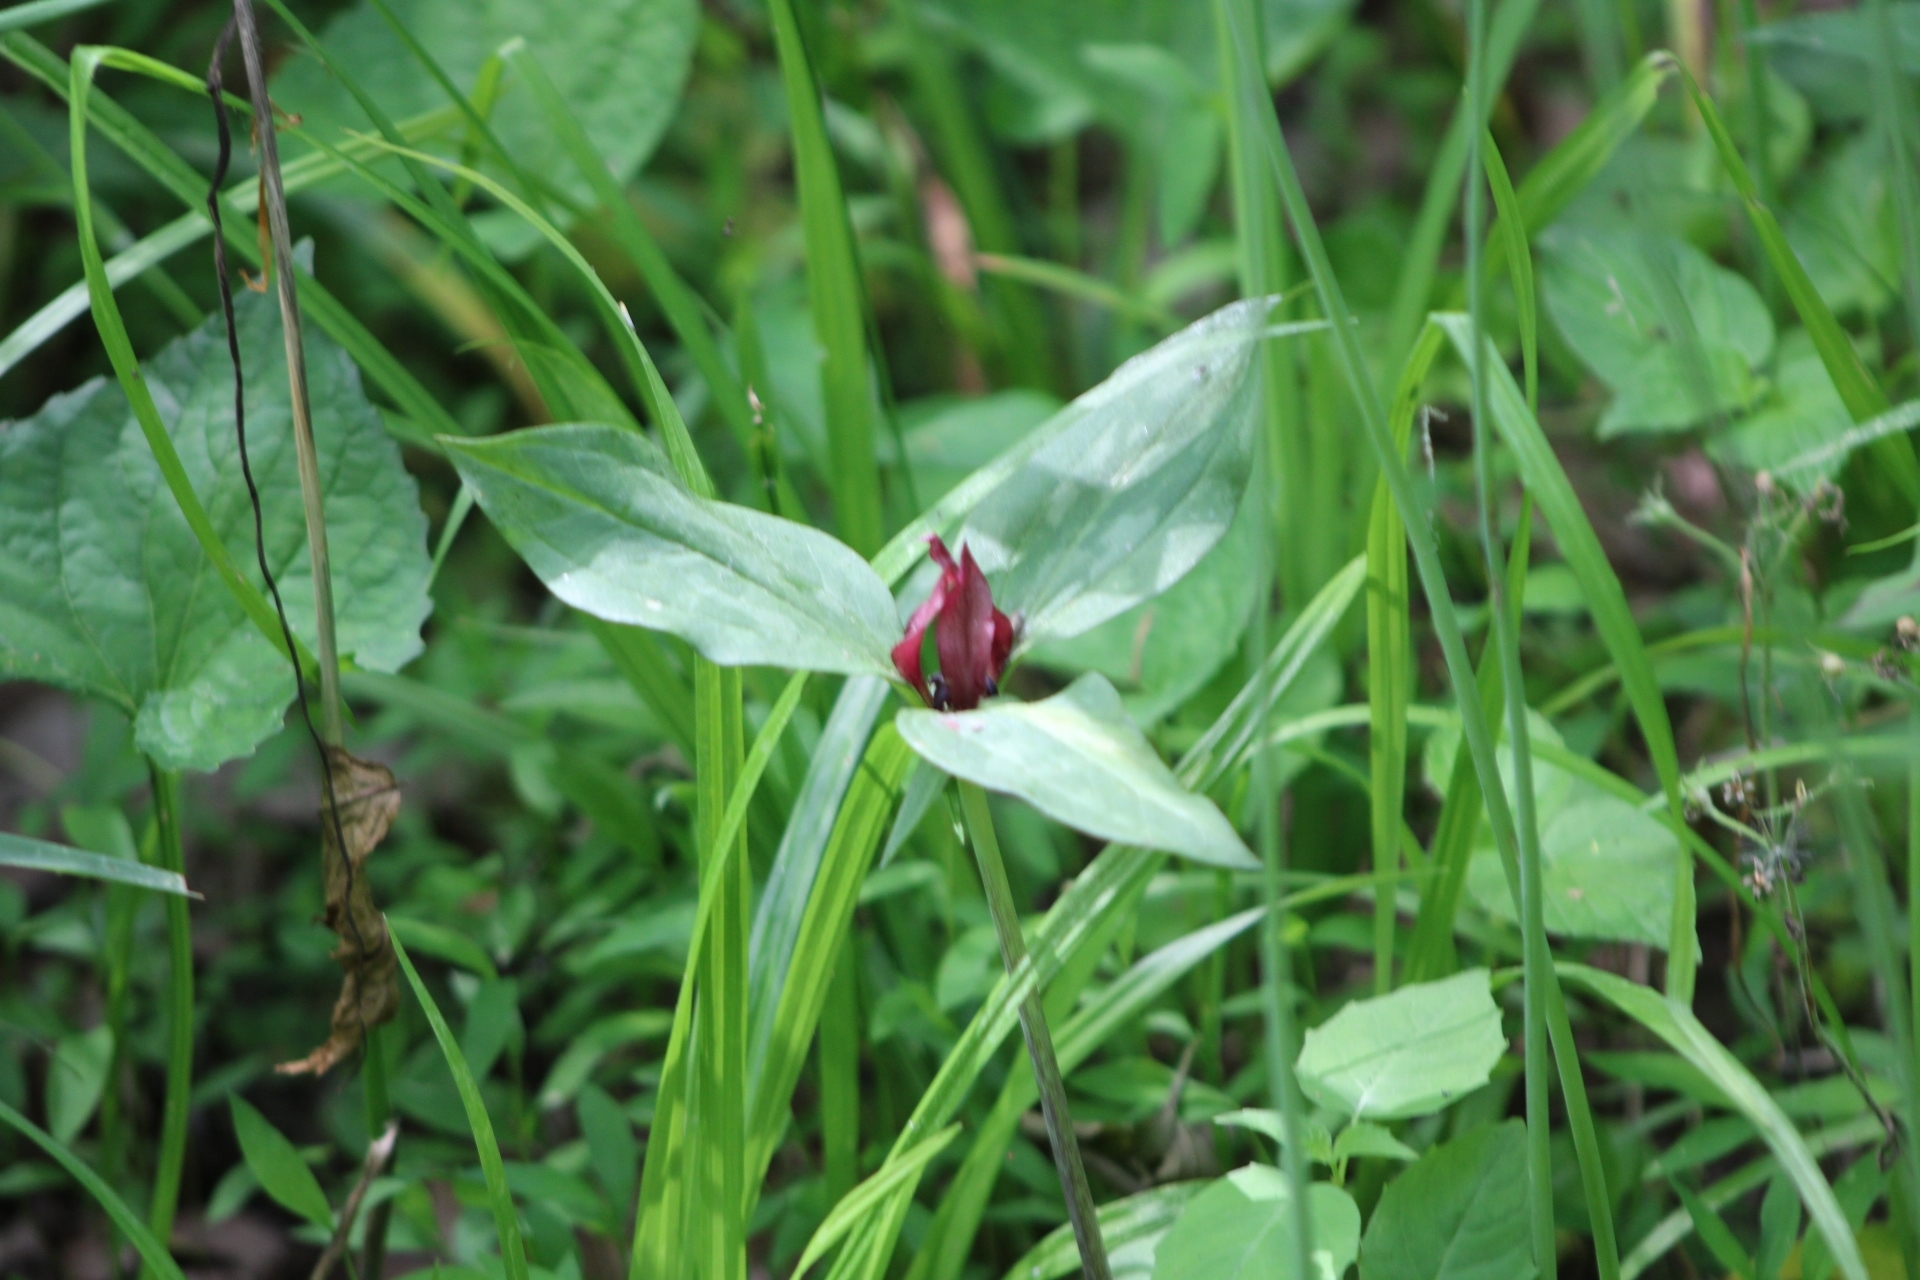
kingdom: Plantae
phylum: Tracheophyta
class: Liliopsida
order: Liliales
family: Melanthiaceae
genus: Trillium
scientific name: Trillium recurvatum
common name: Bloody butcher
